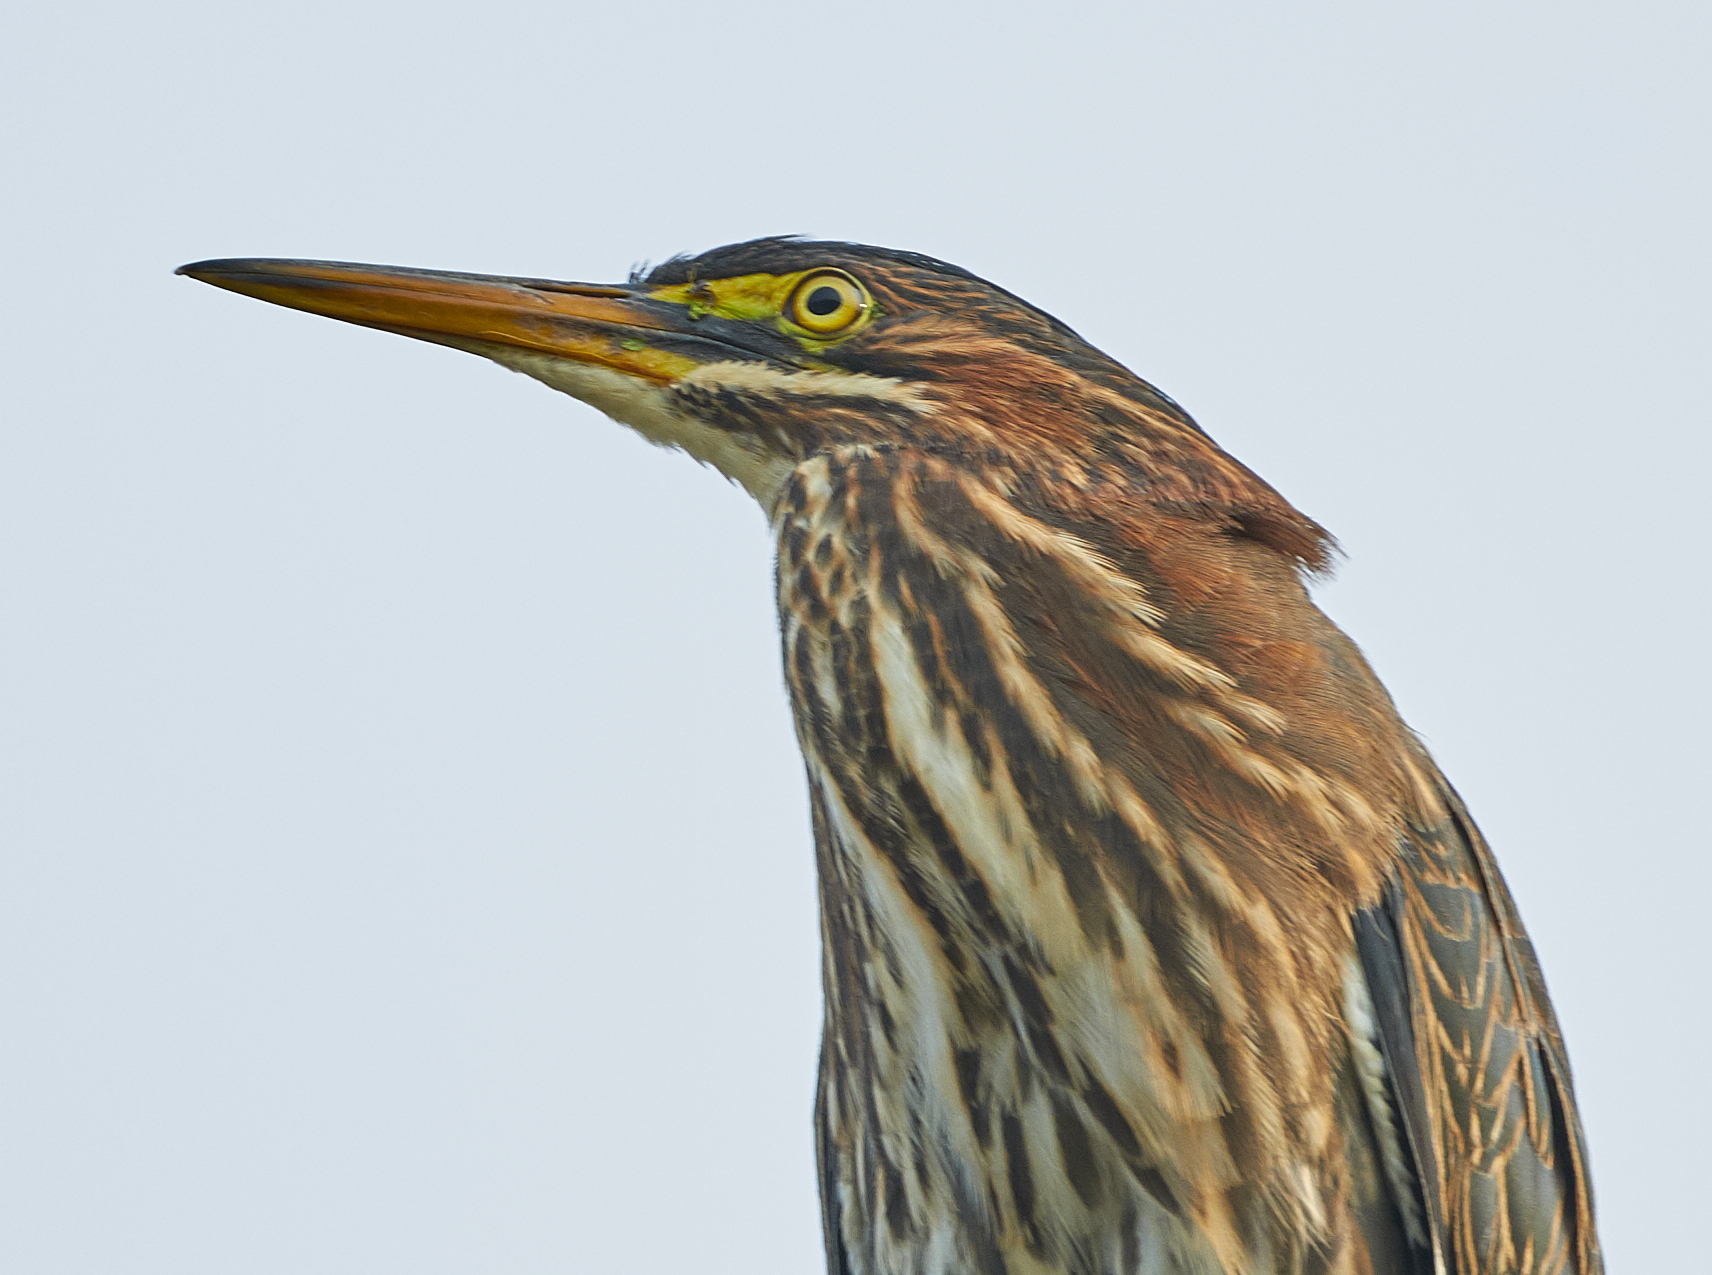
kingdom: Animalia
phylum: Chordata
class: Aves
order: Pelecaniformes
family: Ardeidae
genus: Butorides
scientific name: Butorides virescens
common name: Green heron
